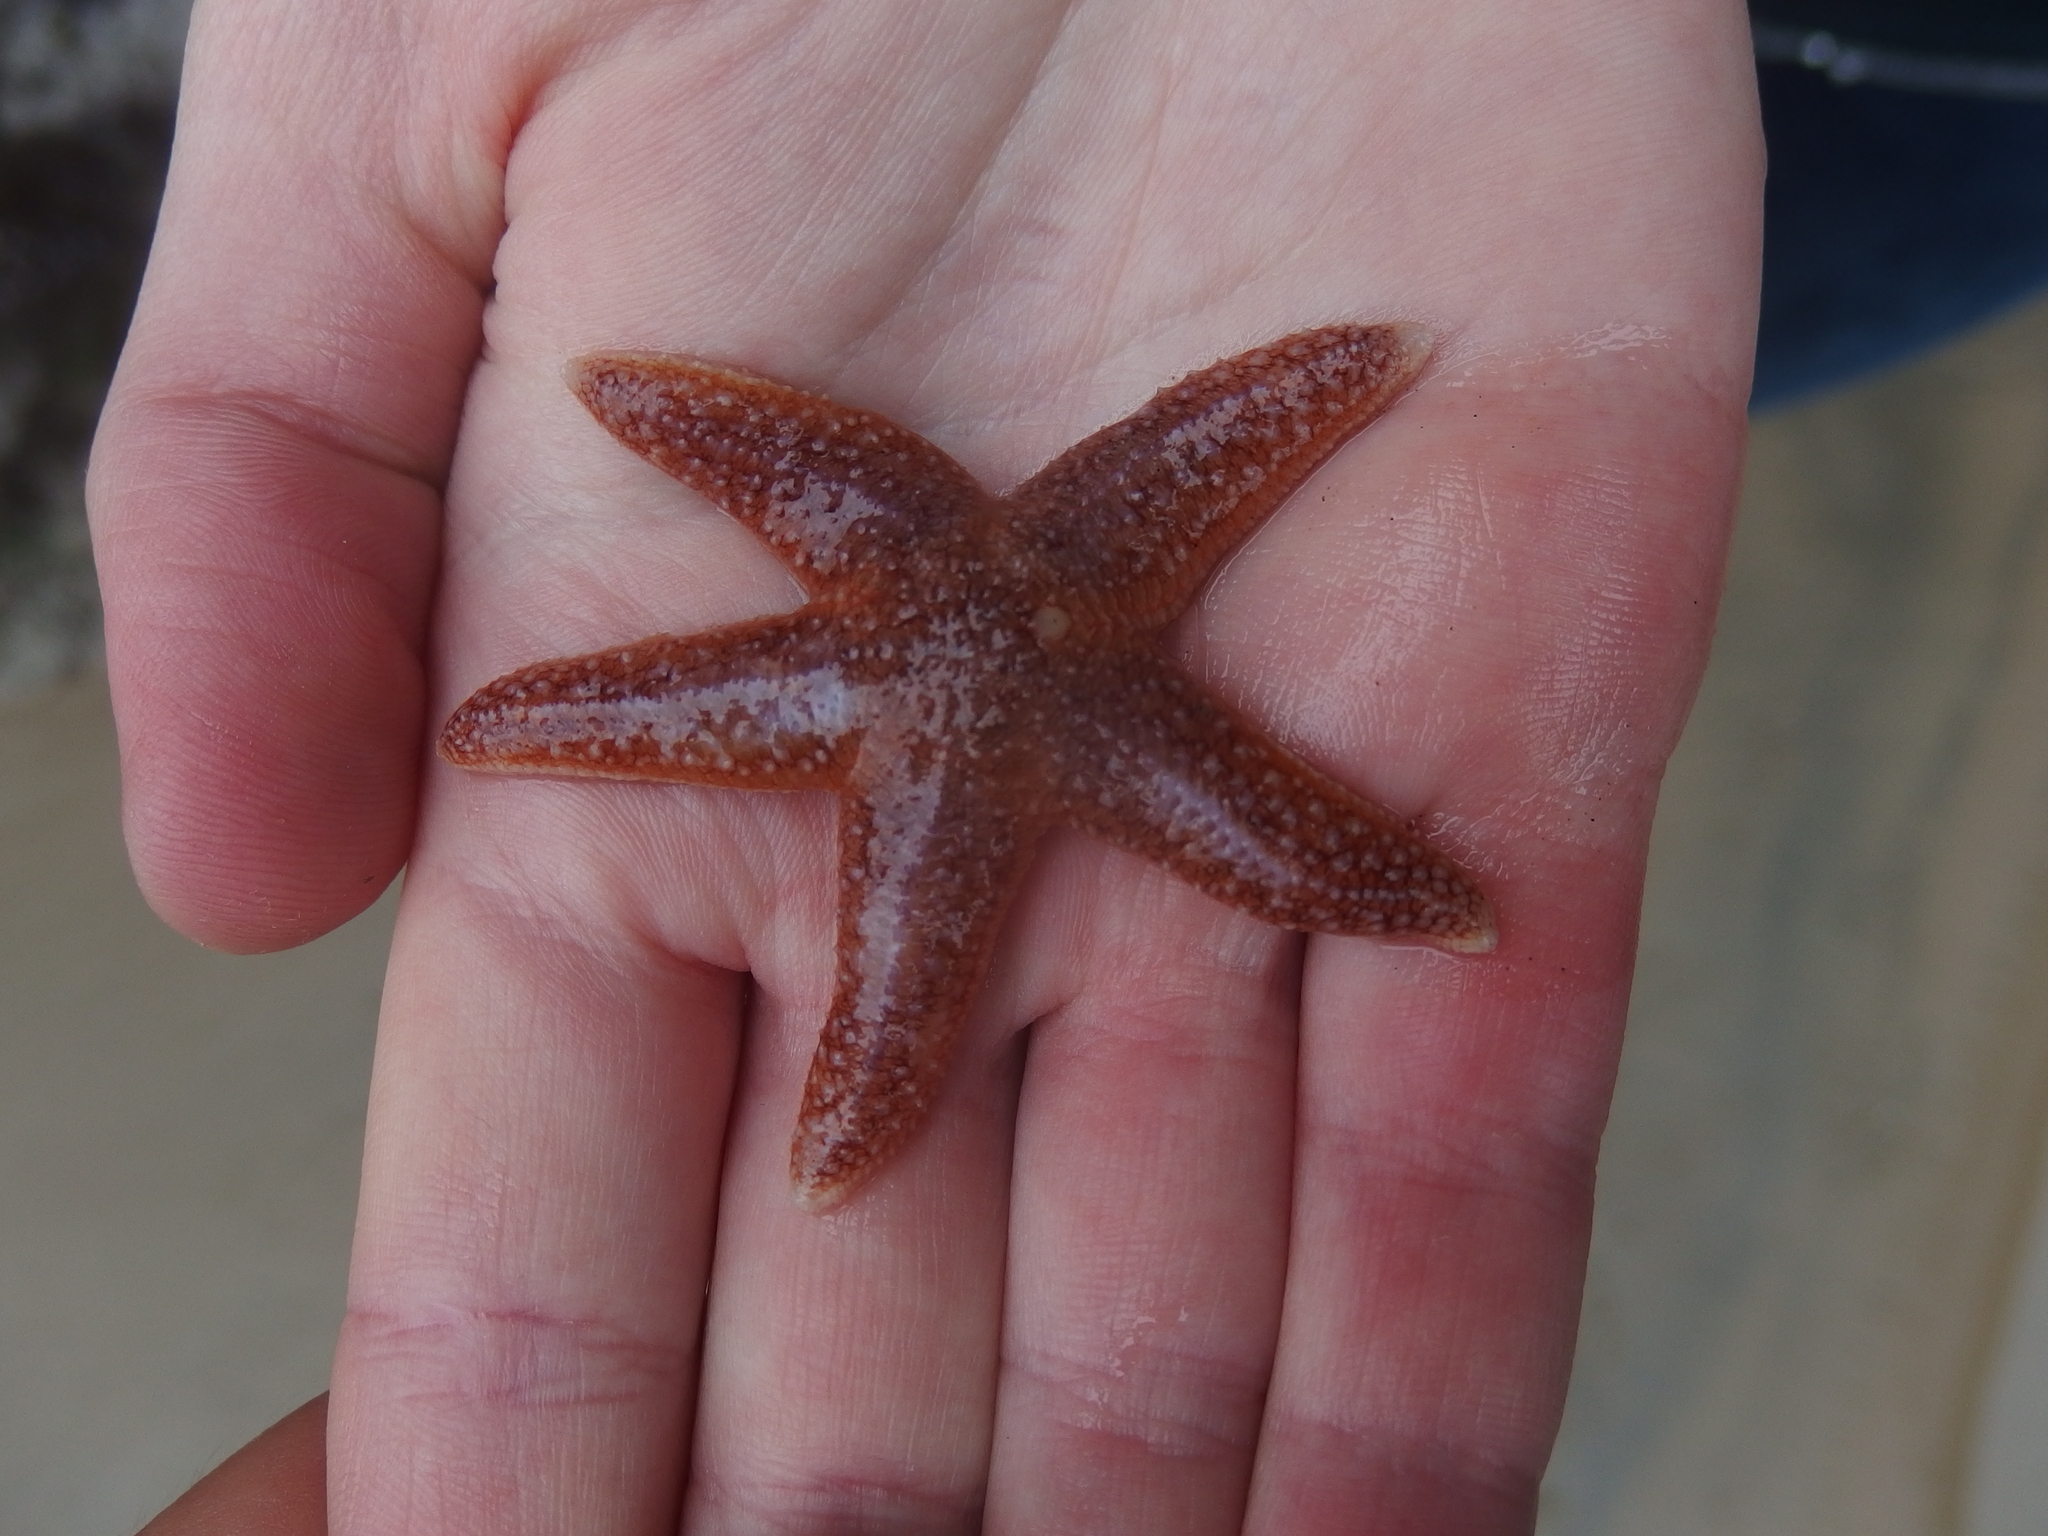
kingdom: Animalia
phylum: Echinodermata
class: Asteroidea
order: Forcipulatida
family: Asteriidae
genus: Asterias
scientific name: Asterias rubens
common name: Common starfish
